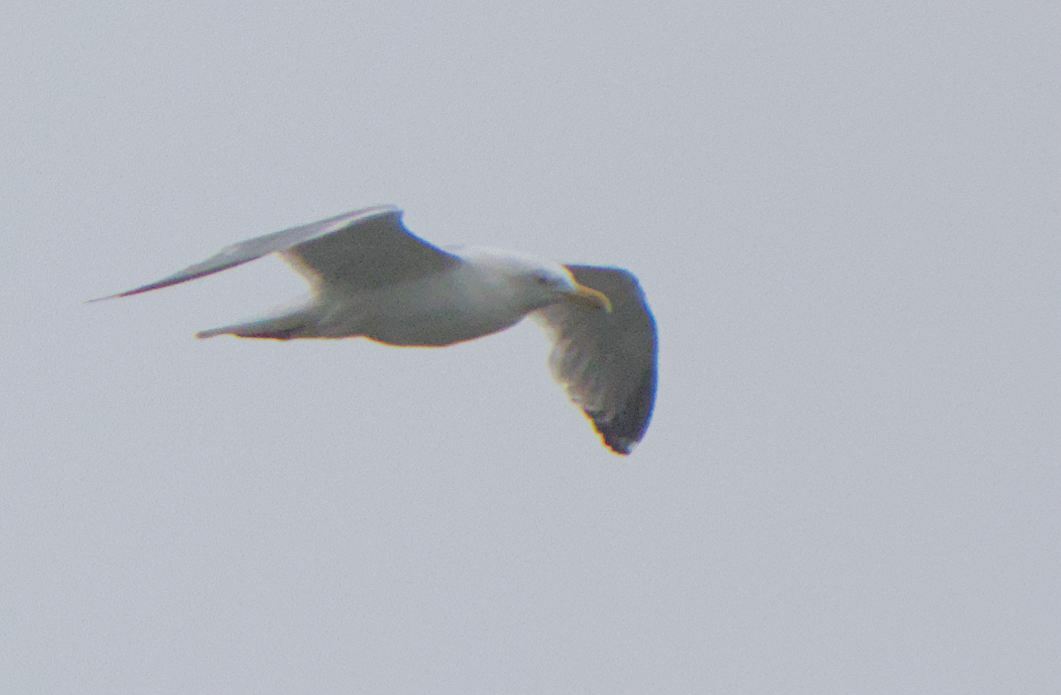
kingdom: Animalia
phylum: Chordata
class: Aves
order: Charadriiformes
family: Laridae
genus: Larus
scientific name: Larus argentatus
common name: Herring gull
